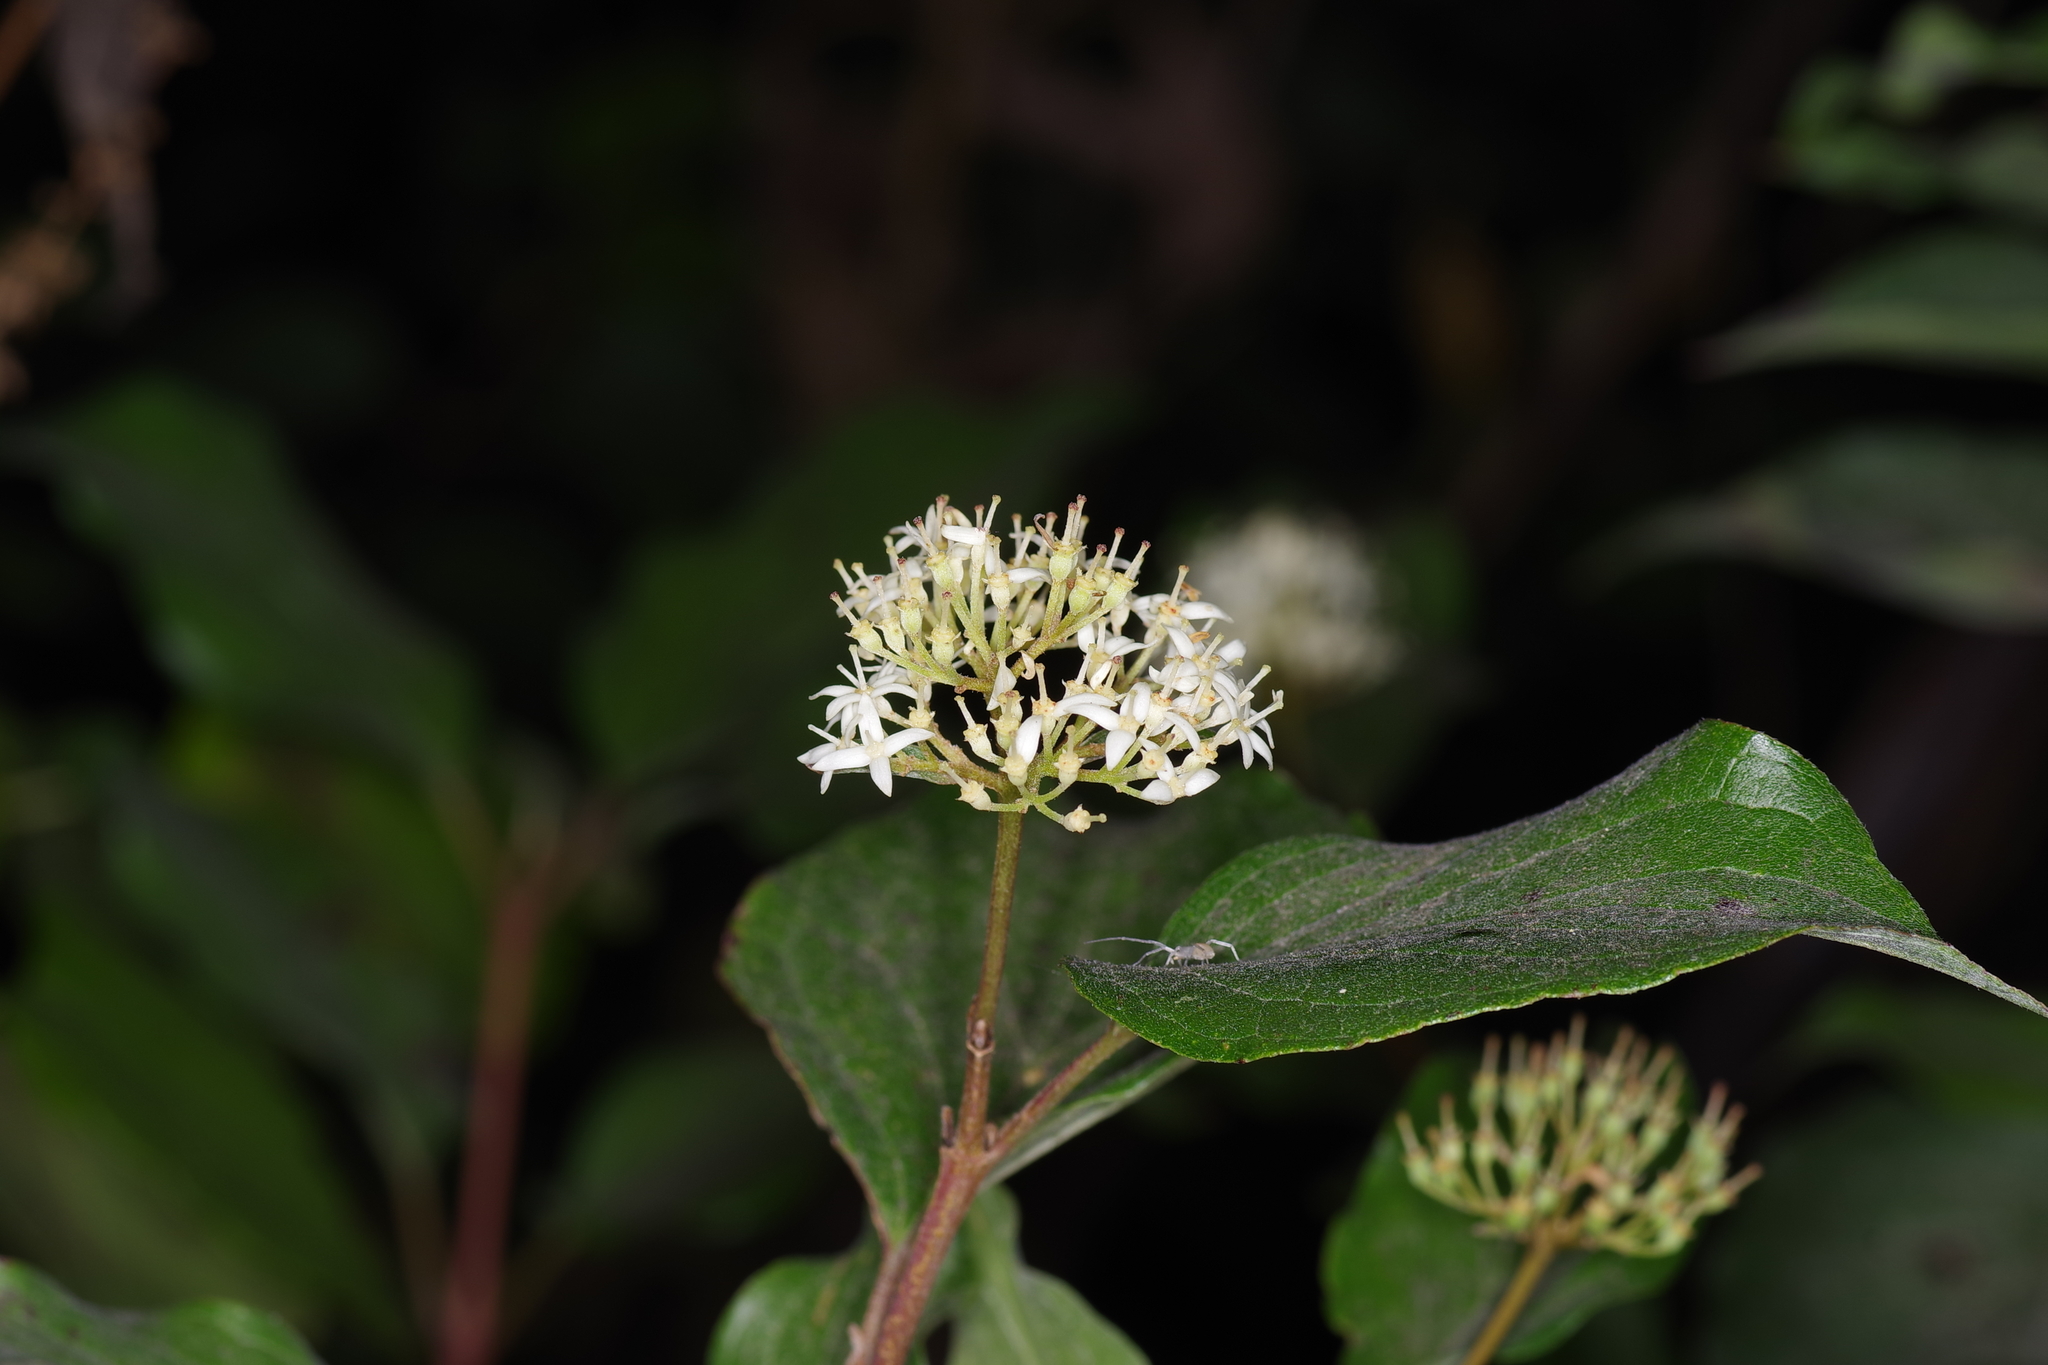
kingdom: Plantae
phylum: Tracheophyta
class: Magnoliopsida
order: Cornales
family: Cornaceae
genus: Cornus
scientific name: Cornus drummondii
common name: Rough-leaf dogwood
